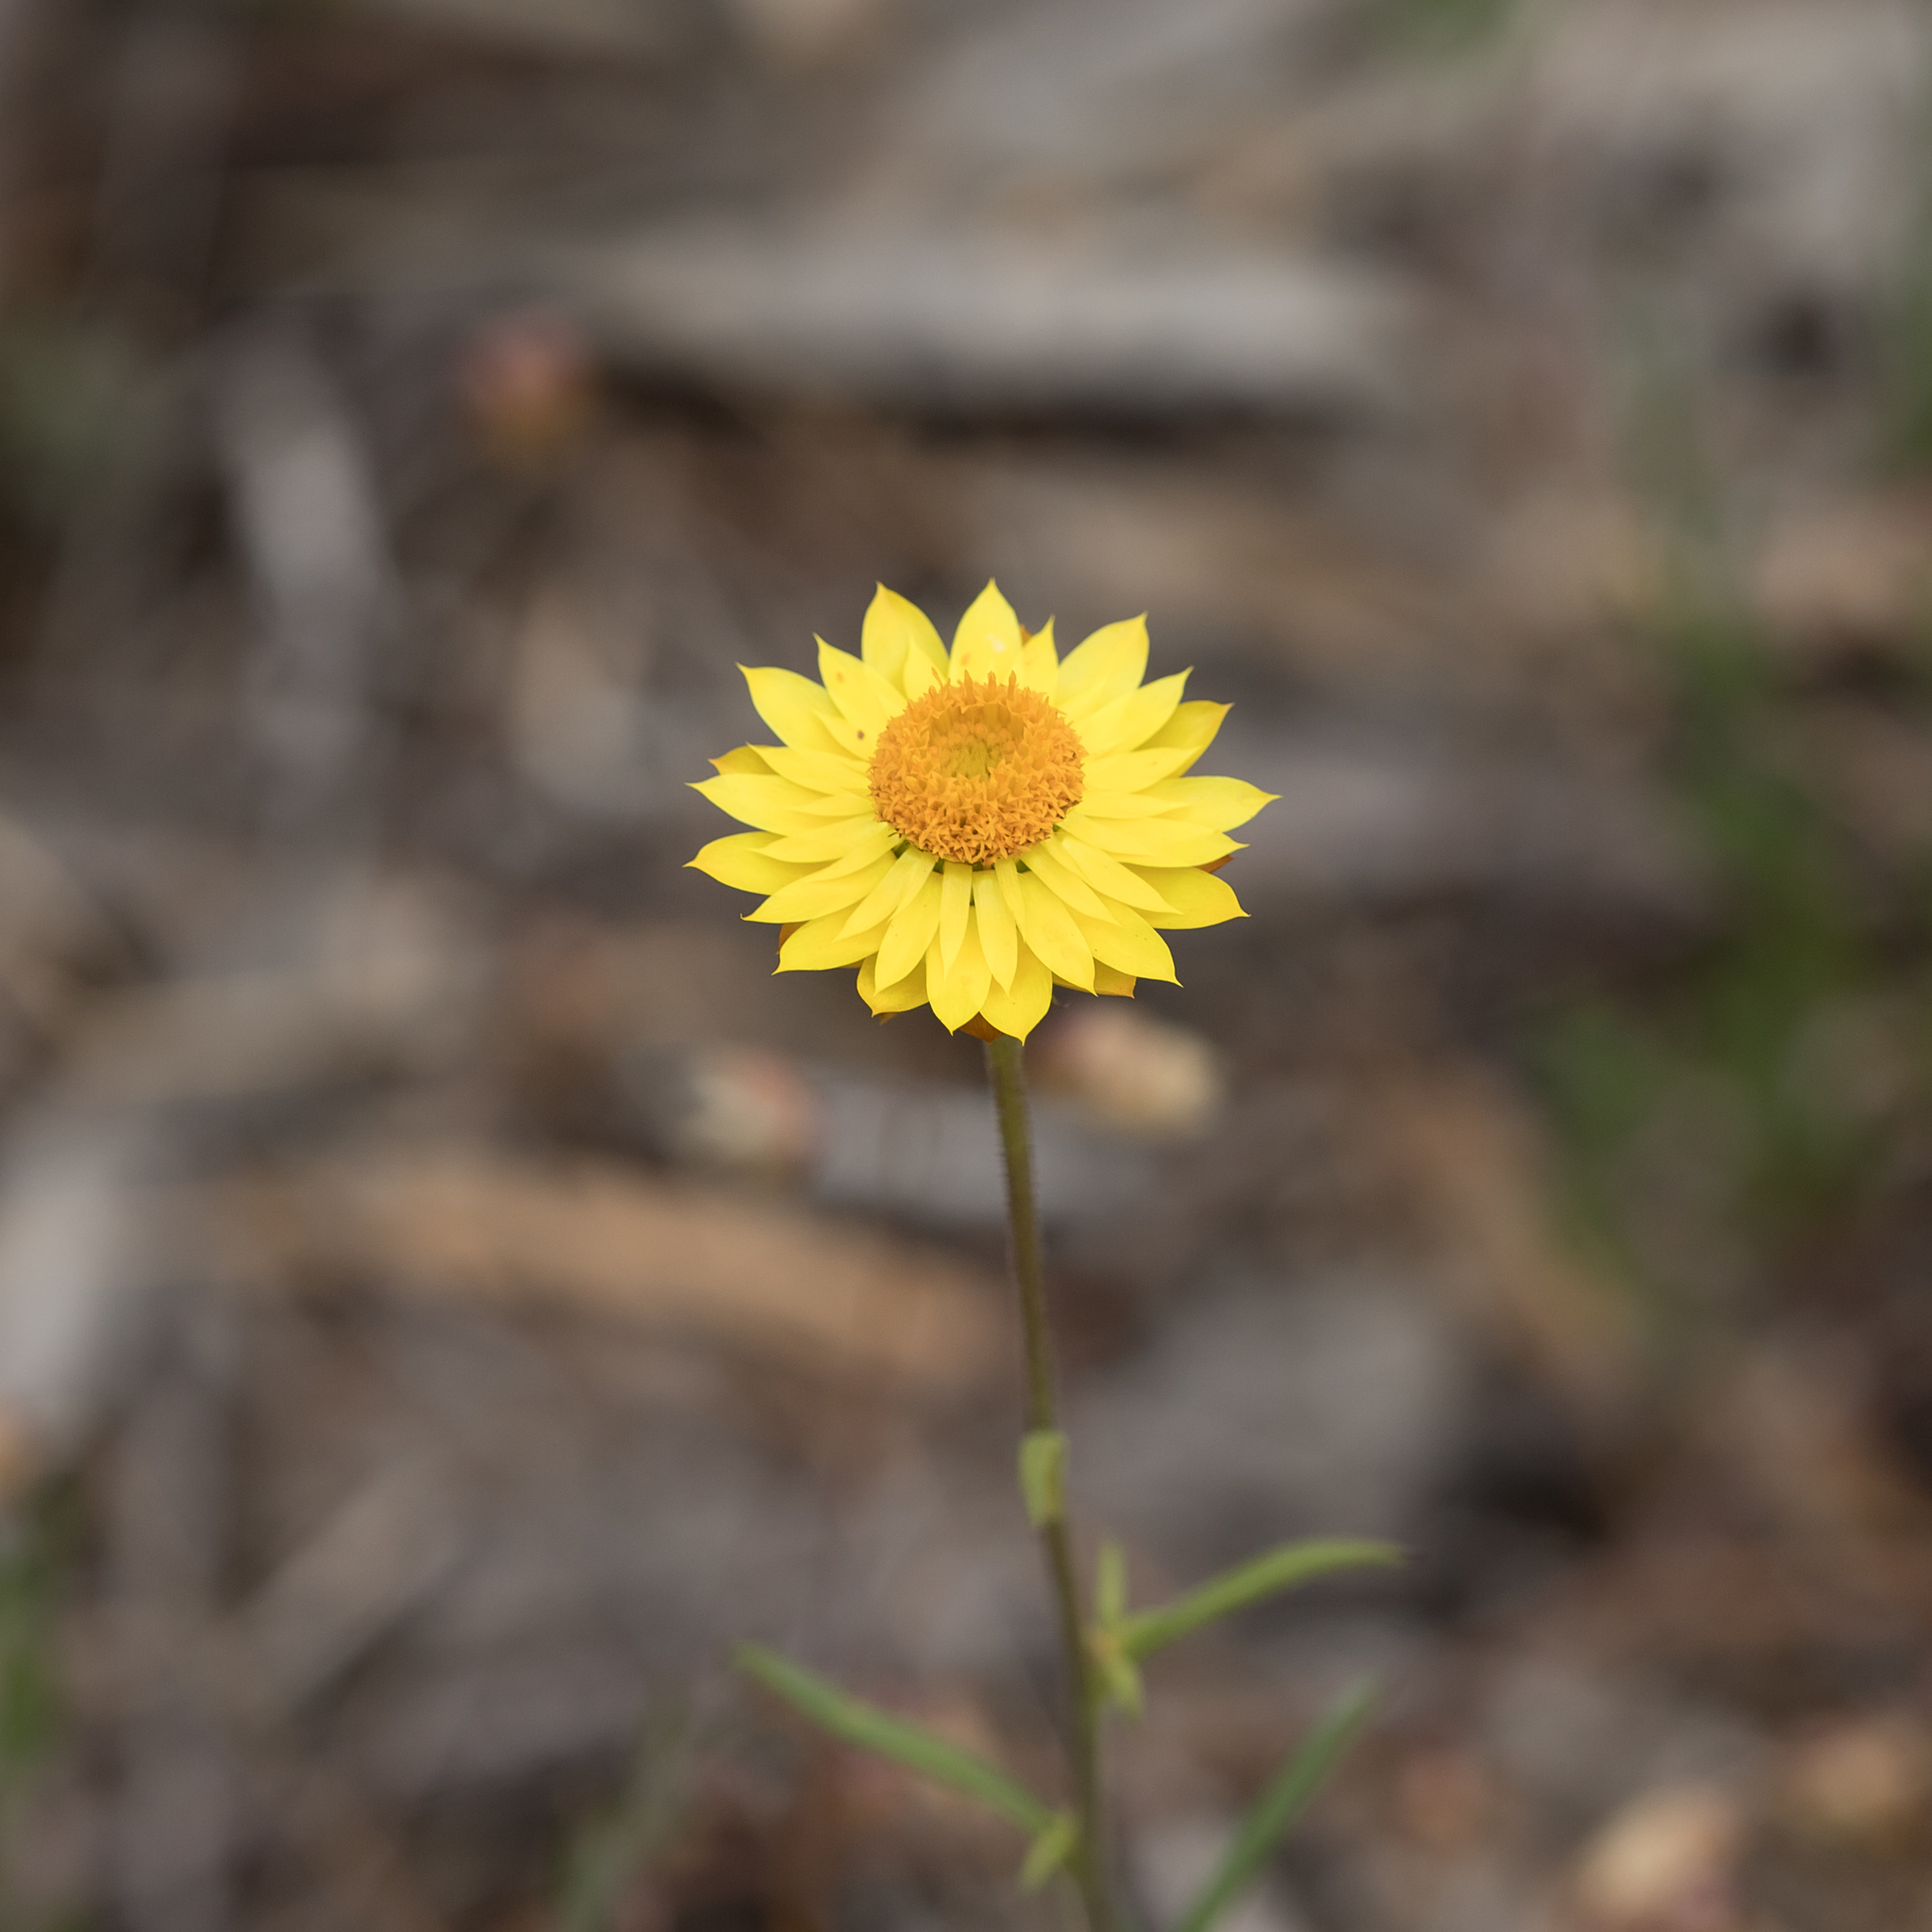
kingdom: Plantae
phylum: Tracheophyta
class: Magnoliopsida
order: Asterales
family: Asteraceae
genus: Xerochrysum
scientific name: Xerochrysum viscosum
